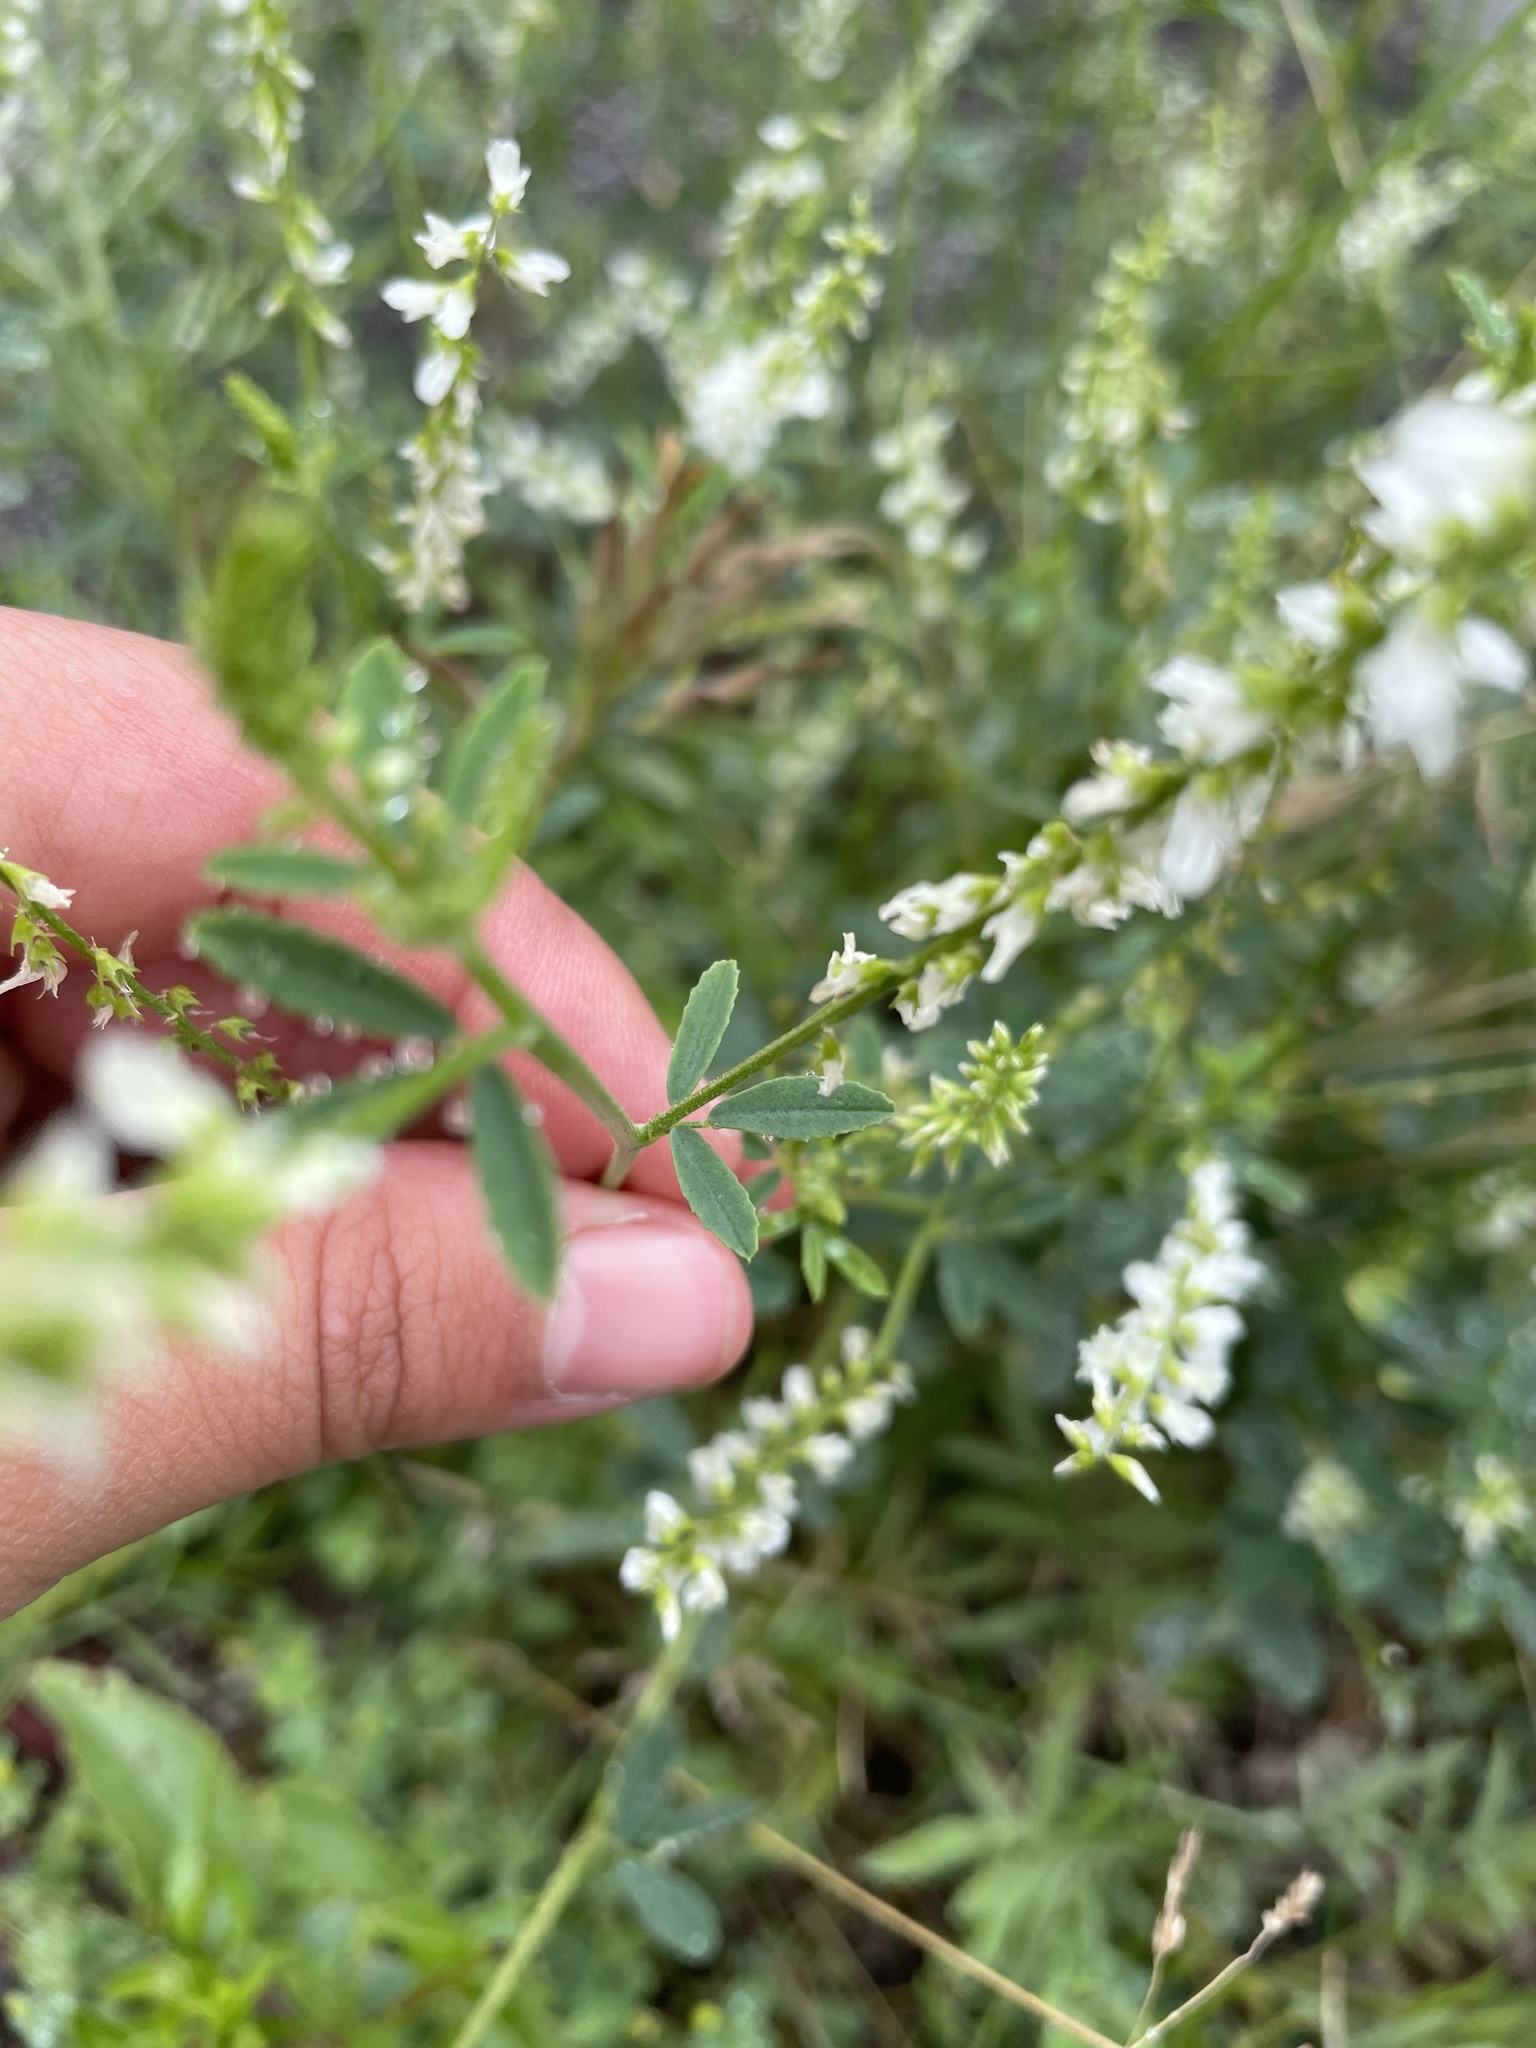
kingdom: Plantae
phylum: Tracheophyta
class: Magnoliopsida
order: Fabales
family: Fabaceae
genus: Melilotus
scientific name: Melilotus albus
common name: White melilot
